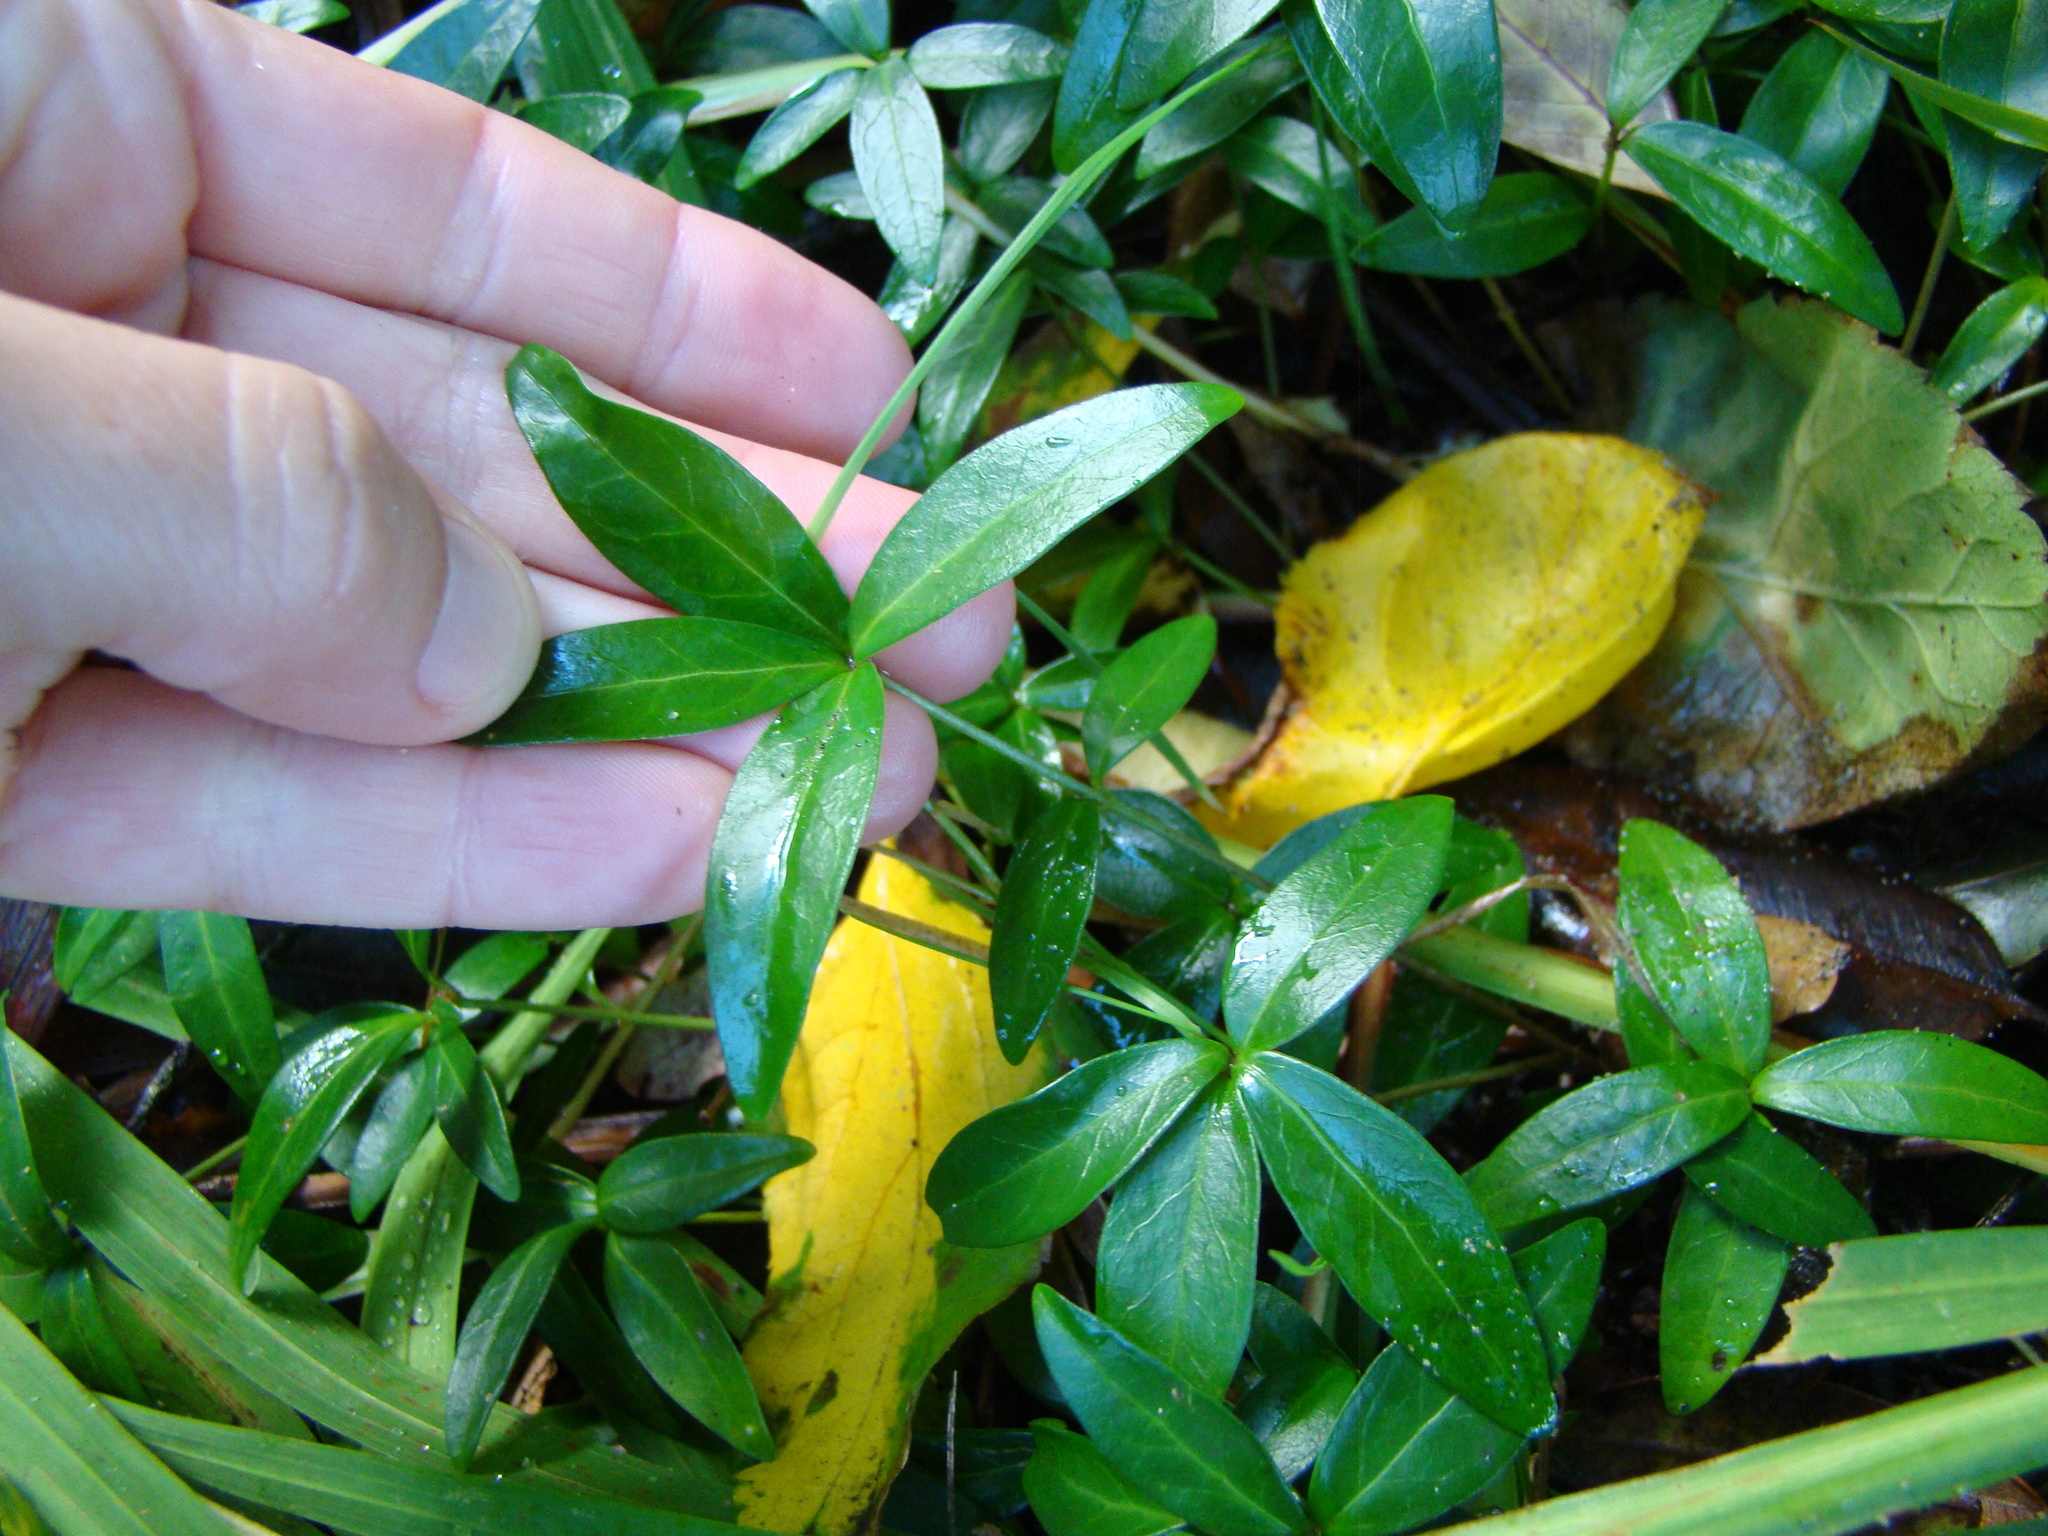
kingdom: Plantae
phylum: Tracheophyta
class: Magnoliopsida
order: Gentianales
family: Apocynaceae
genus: Vinca
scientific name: Vinca minor
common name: Lesser periwinkle
